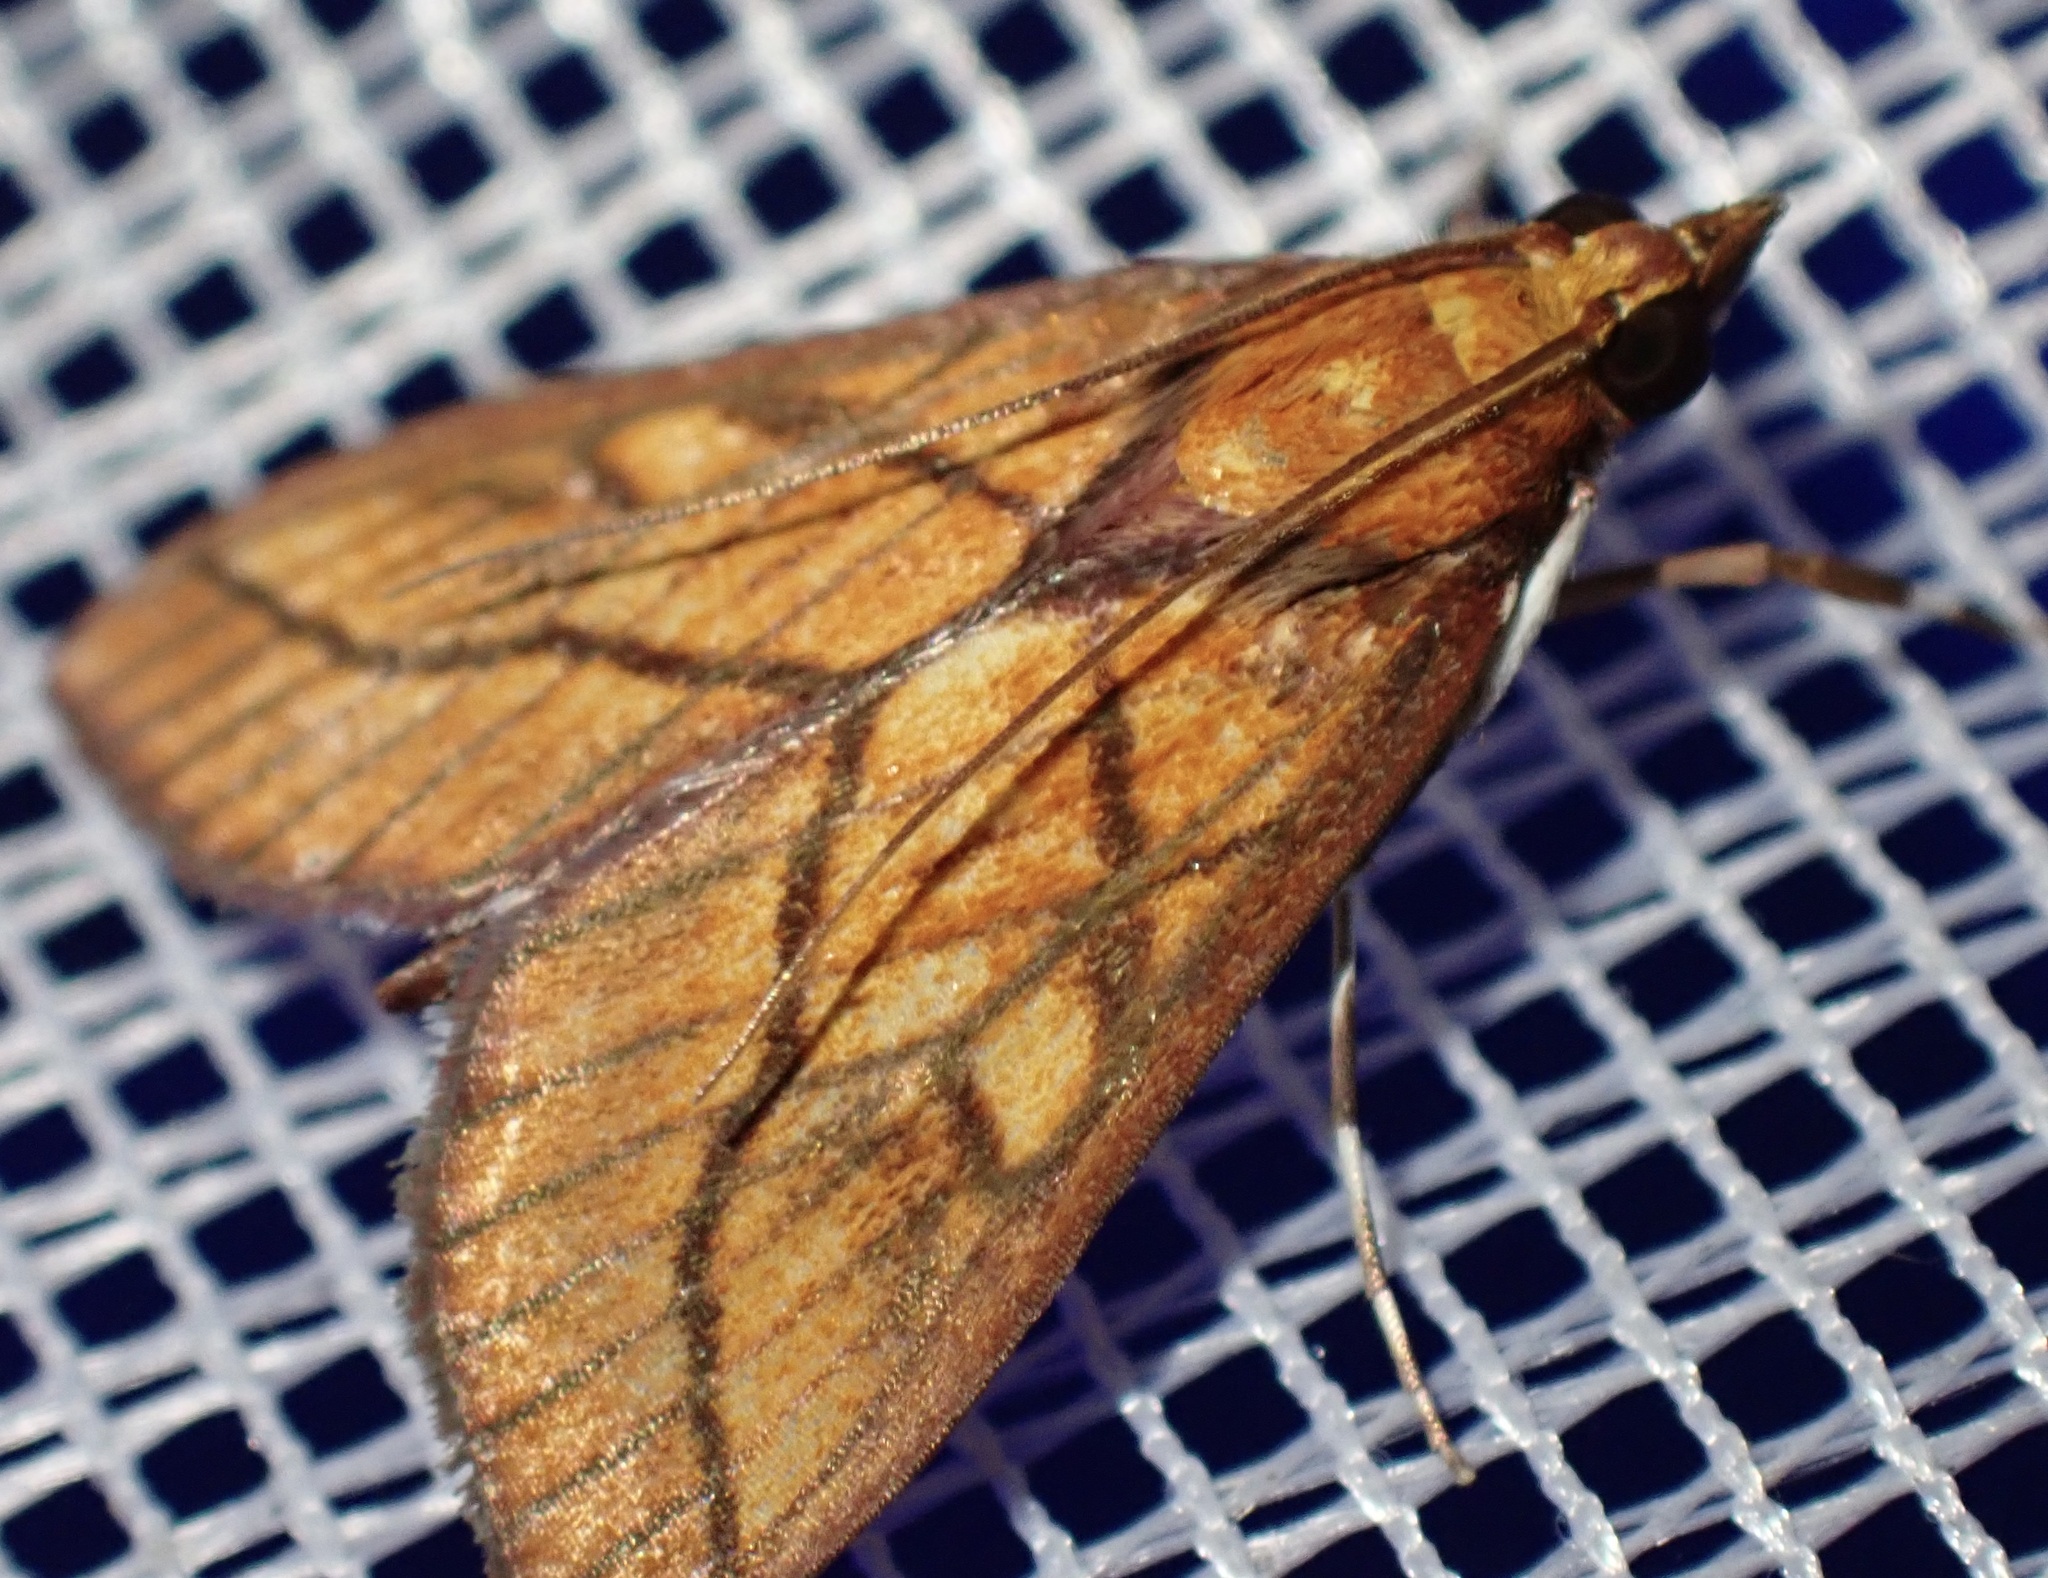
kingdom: Animalia
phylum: Arthropoda
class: Insecta
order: Lepidoptera
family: Crambidae
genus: Placosaris
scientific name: Placosaris triticalis
